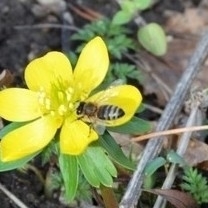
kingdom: Animalia
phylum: Arthropoda
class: Insecta
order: Hymenoptera
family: Apidae
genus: Apis
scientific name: Apis mellifera
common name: Honey bee
